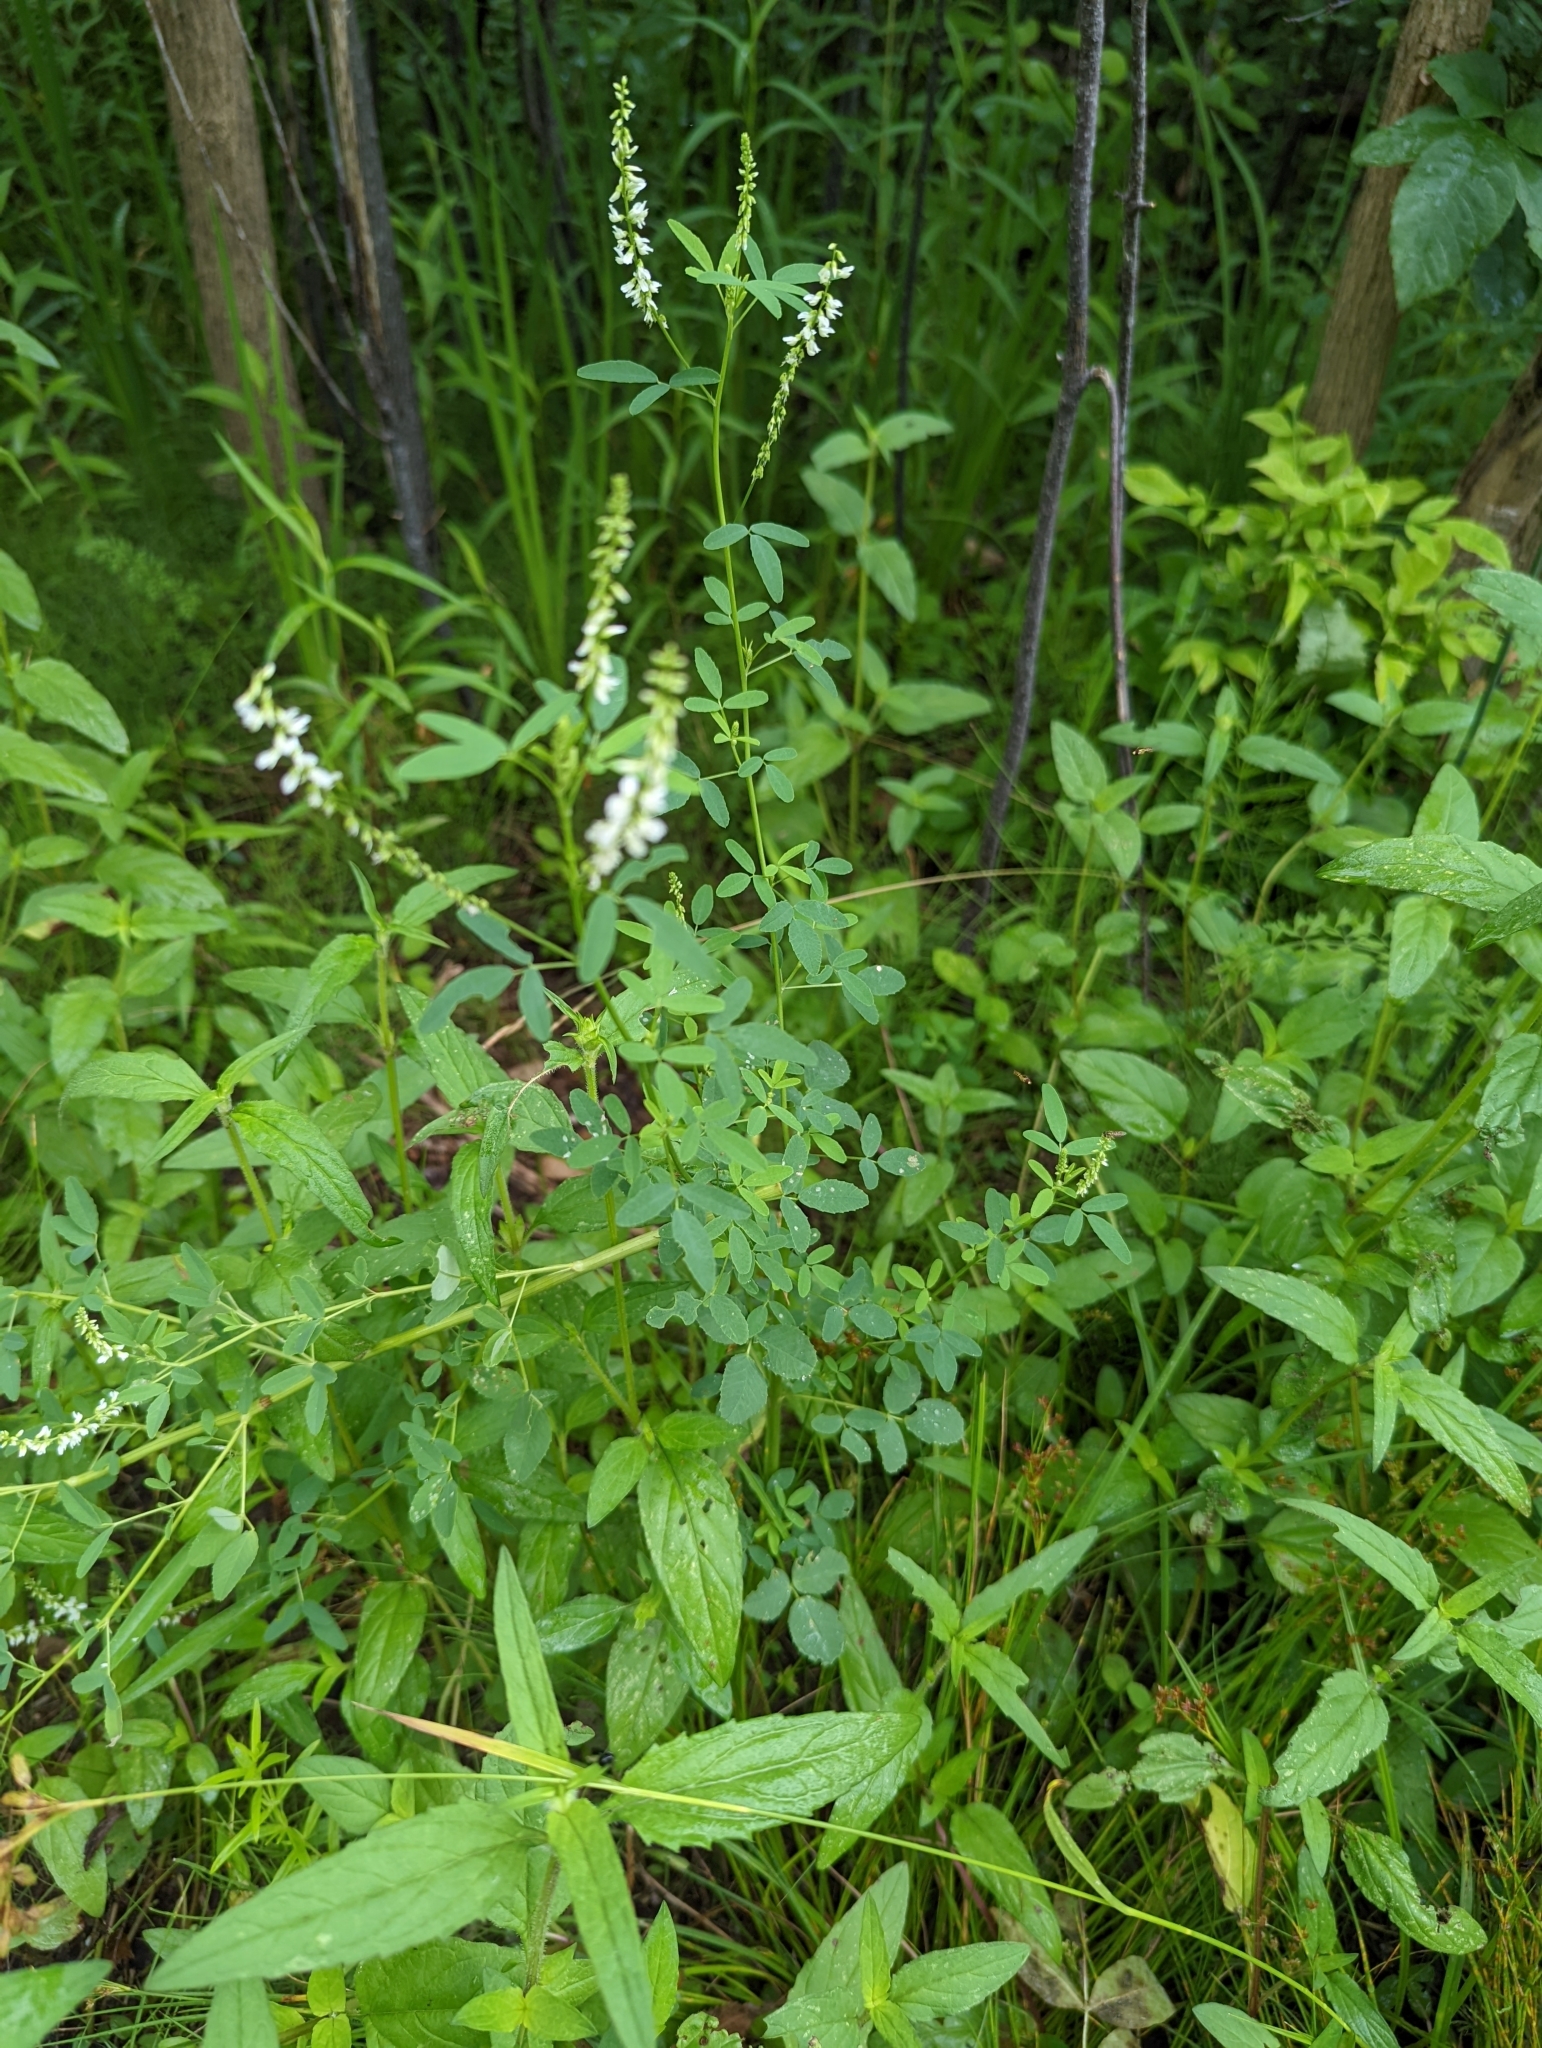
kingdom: Plantae
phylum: Tracheophyta
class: Magnoliopsida
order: Fabales
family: Fabaceae
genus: Melilotus
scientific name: Melilotus albus
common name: White melilot
